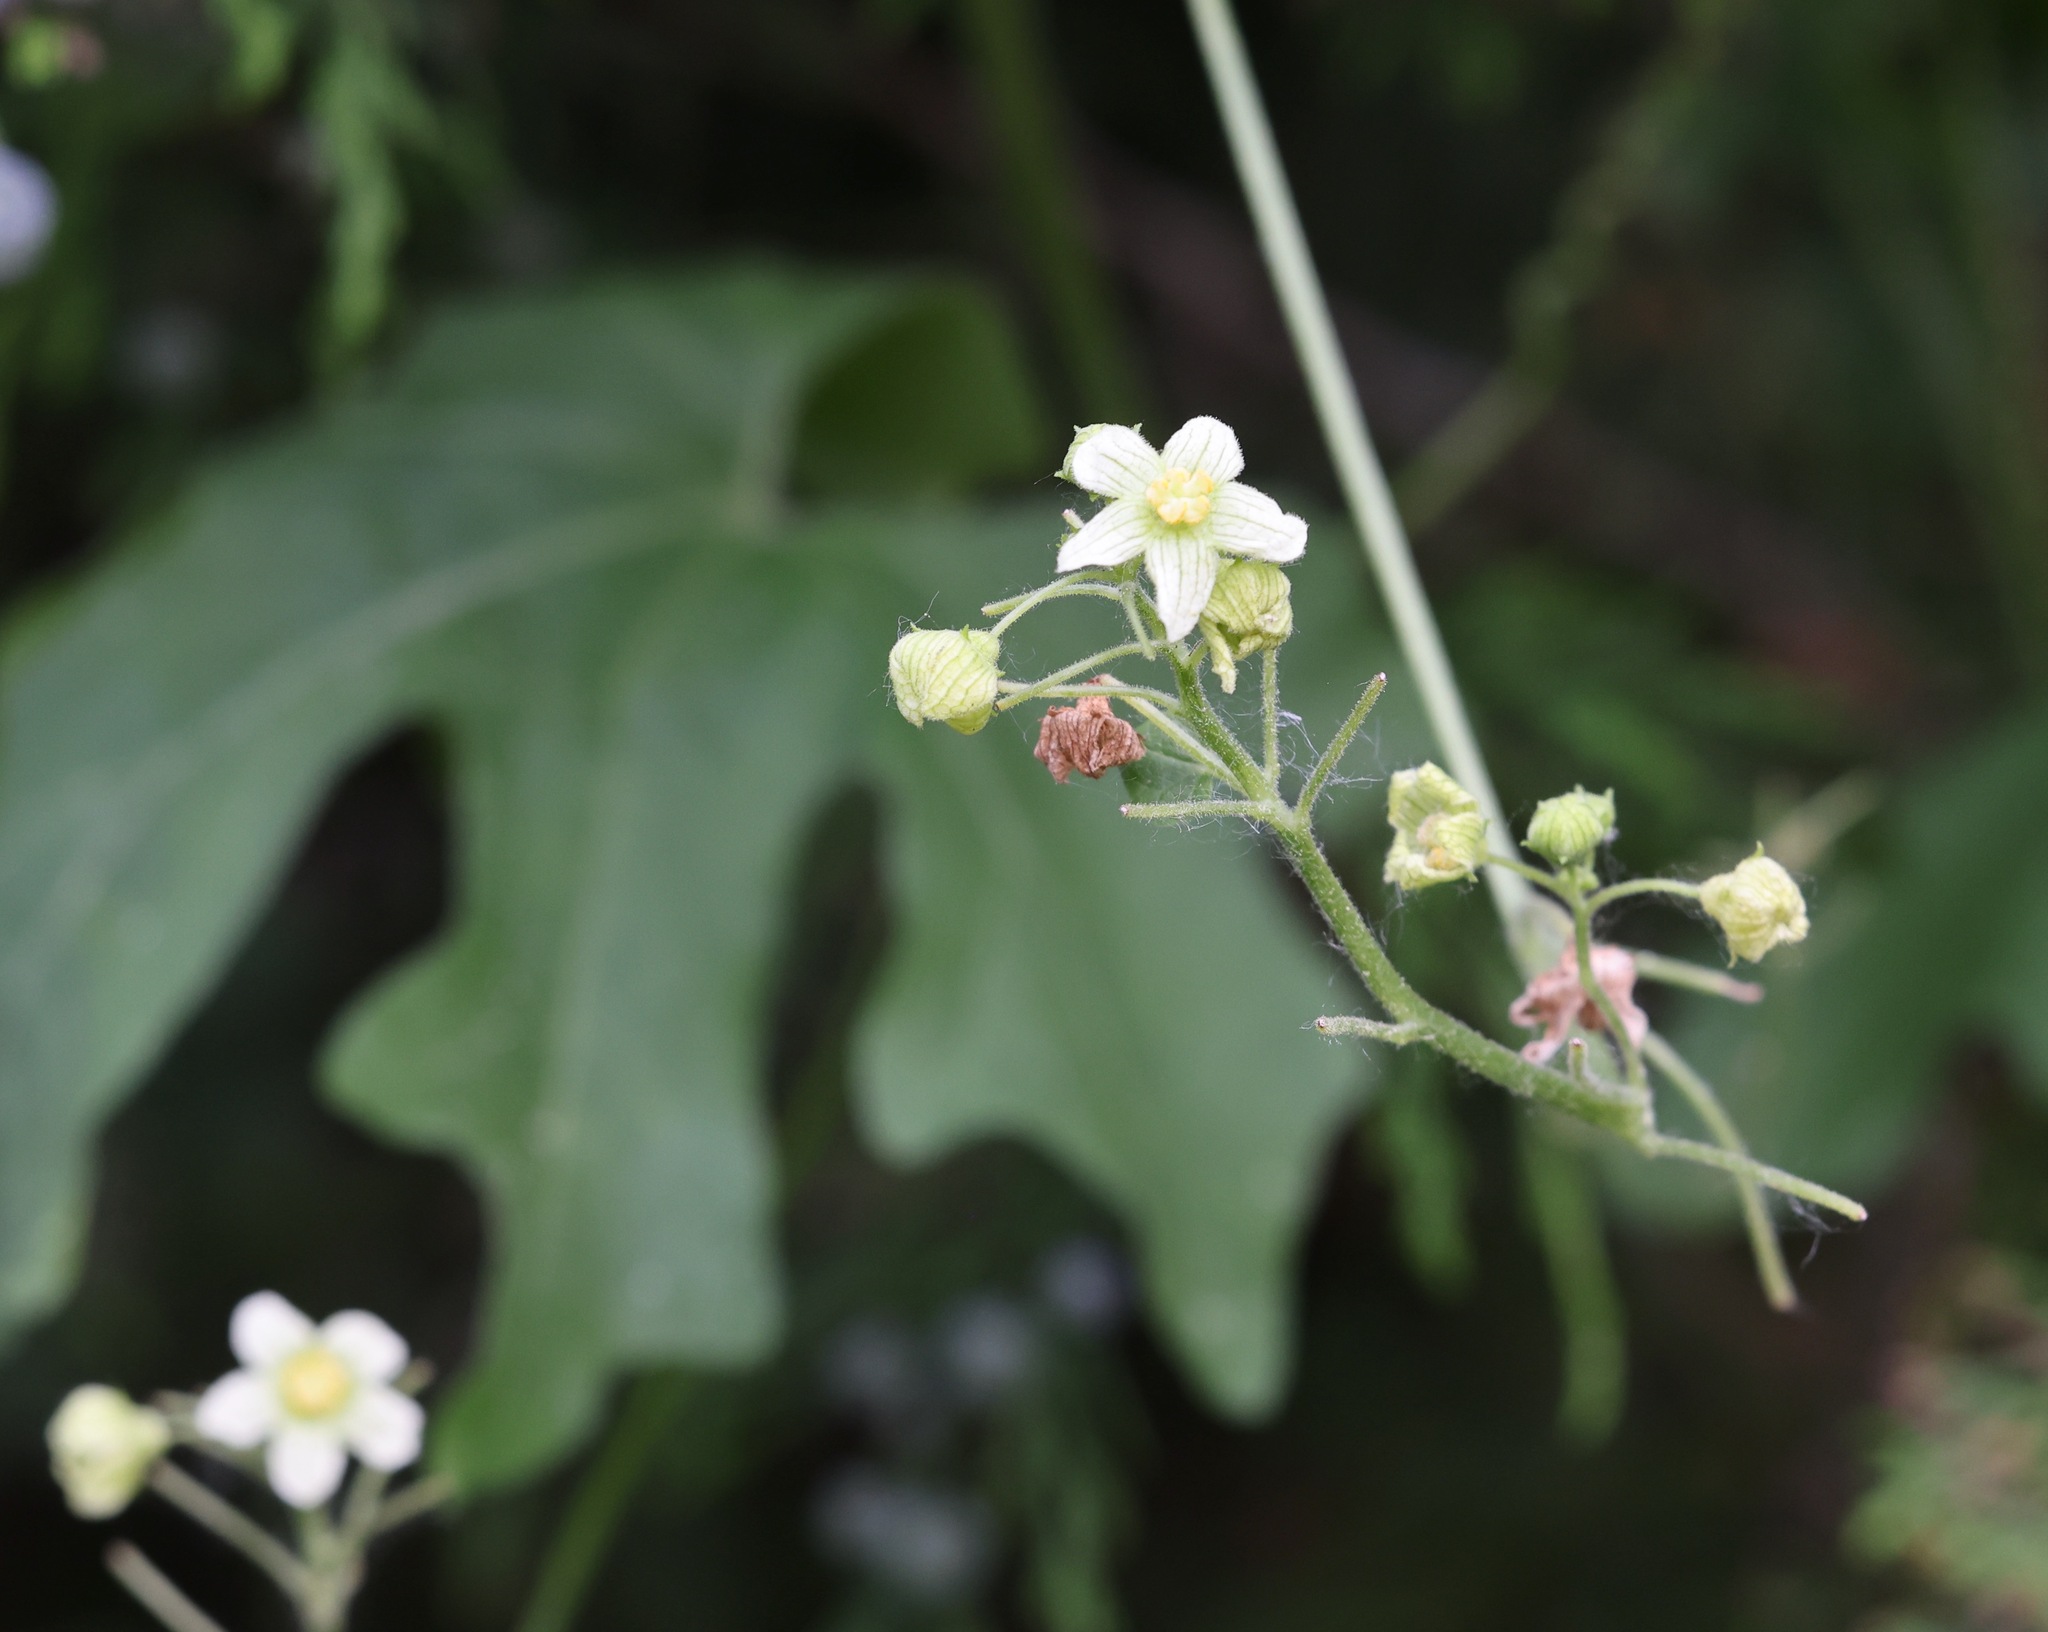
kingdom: Plantae
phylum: Tracheophyta
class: Magnoliopsida
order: Cucurbitales
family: Cucurbitaceae
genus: Bryonia
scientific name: Bryonia cretica
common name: Cretan bryony
